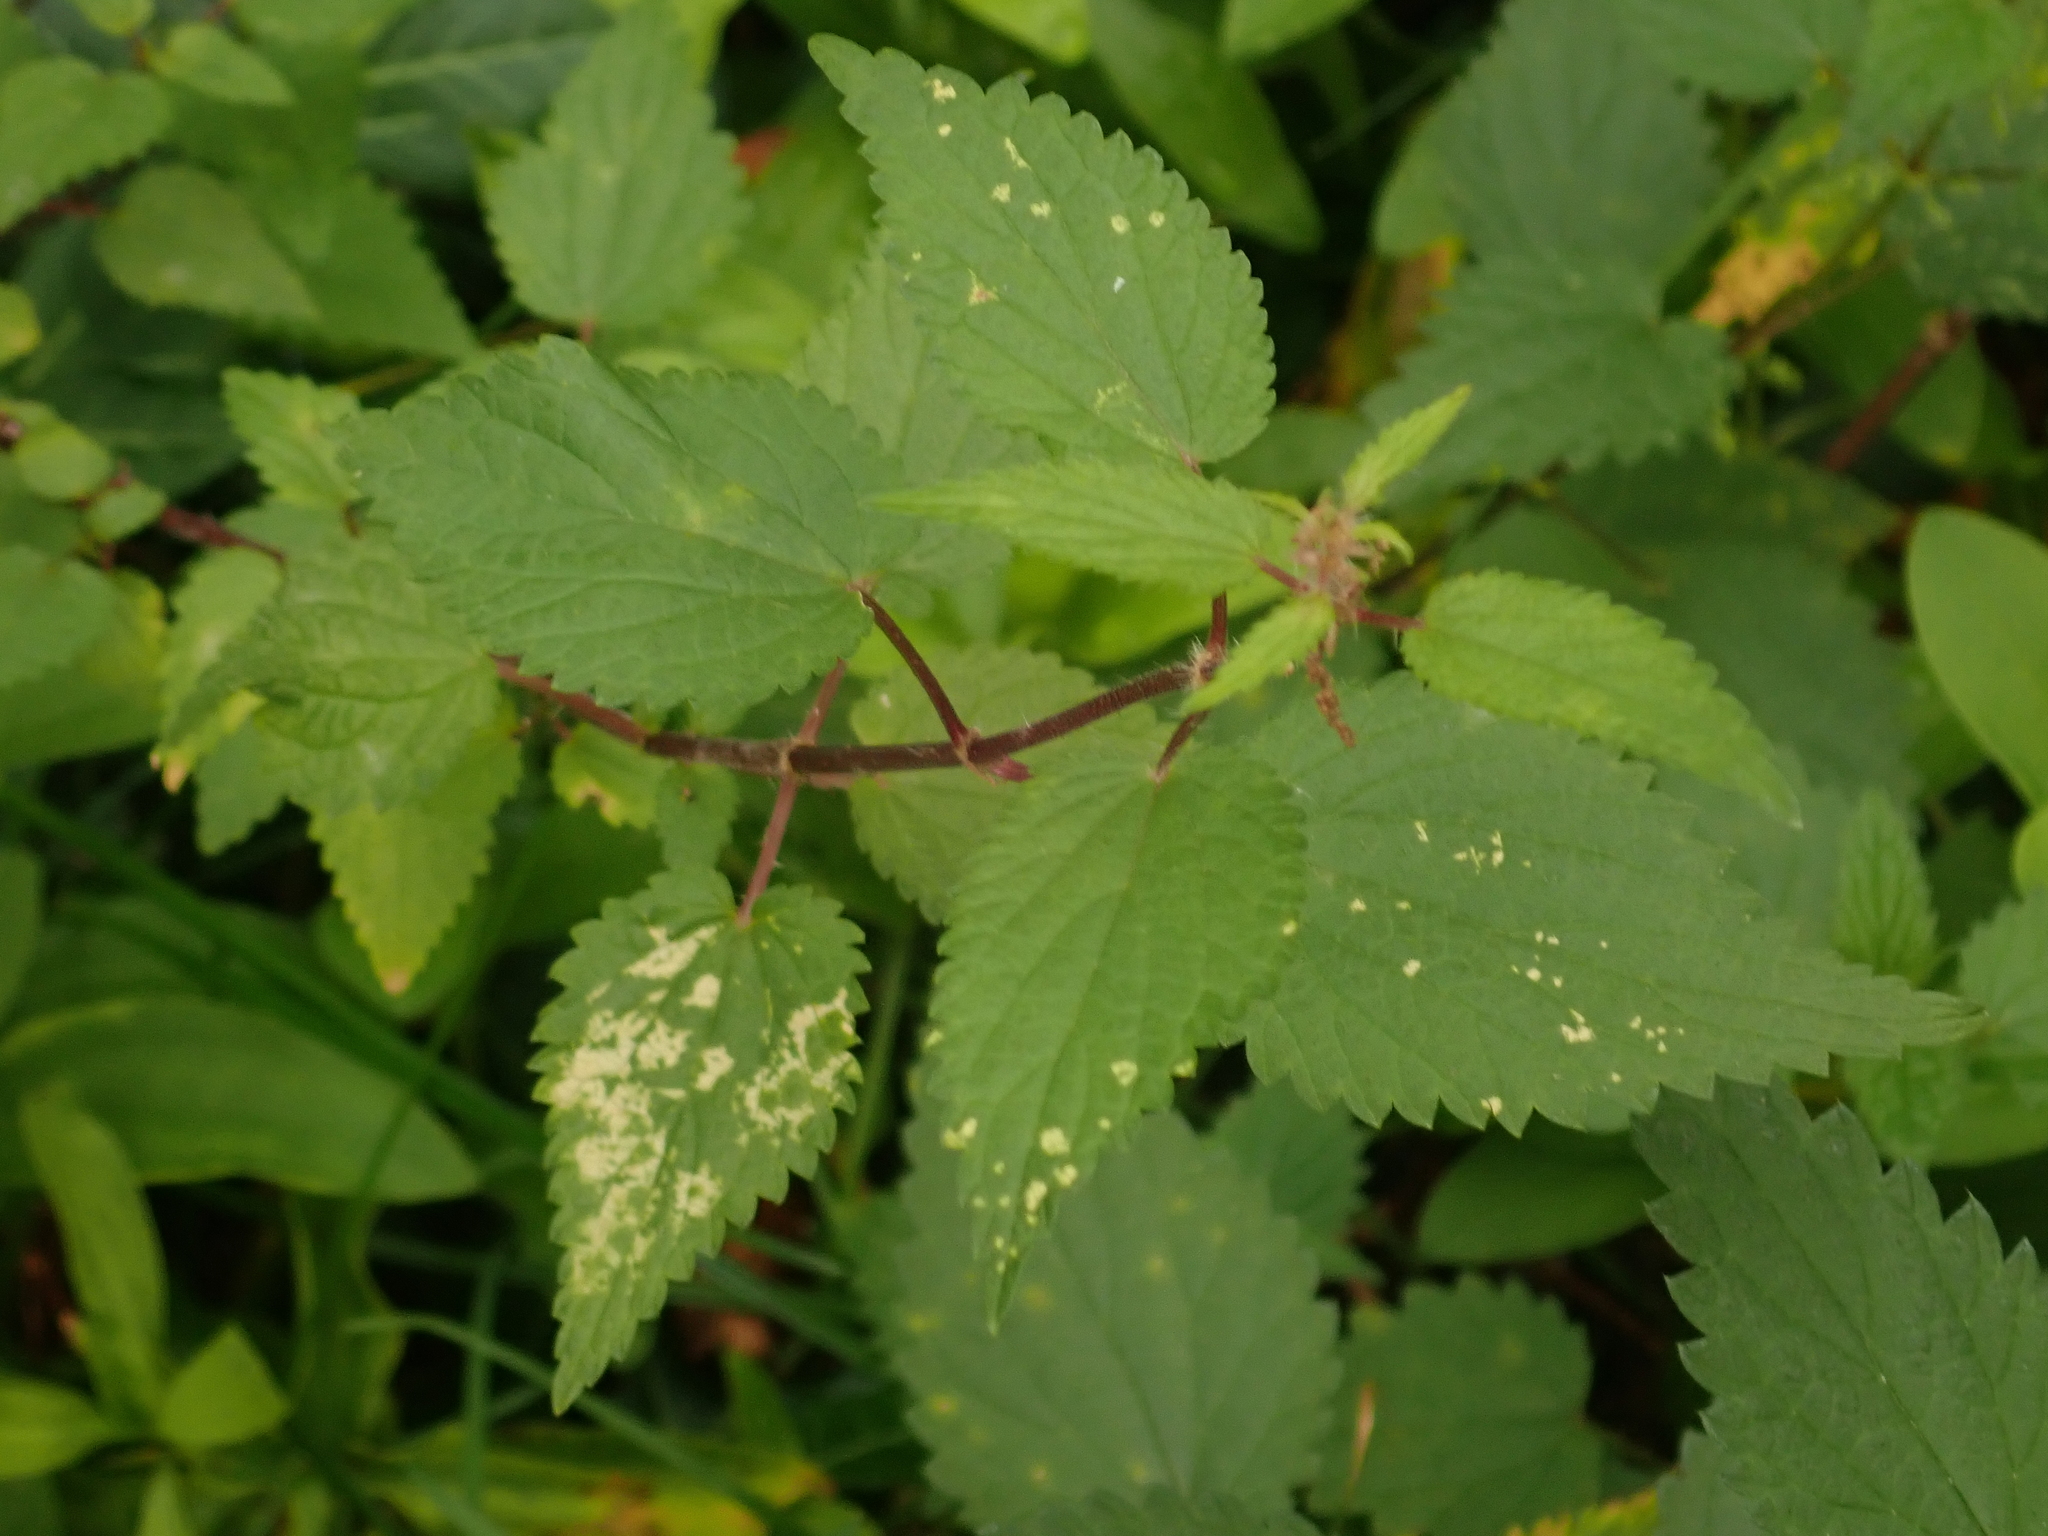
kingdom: Plantae
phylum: Tracheophyta
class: Magnoliopsida
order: Rosales
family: Urticaceae
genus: Urtica
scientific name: Urtica dioica
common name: Common nettle
